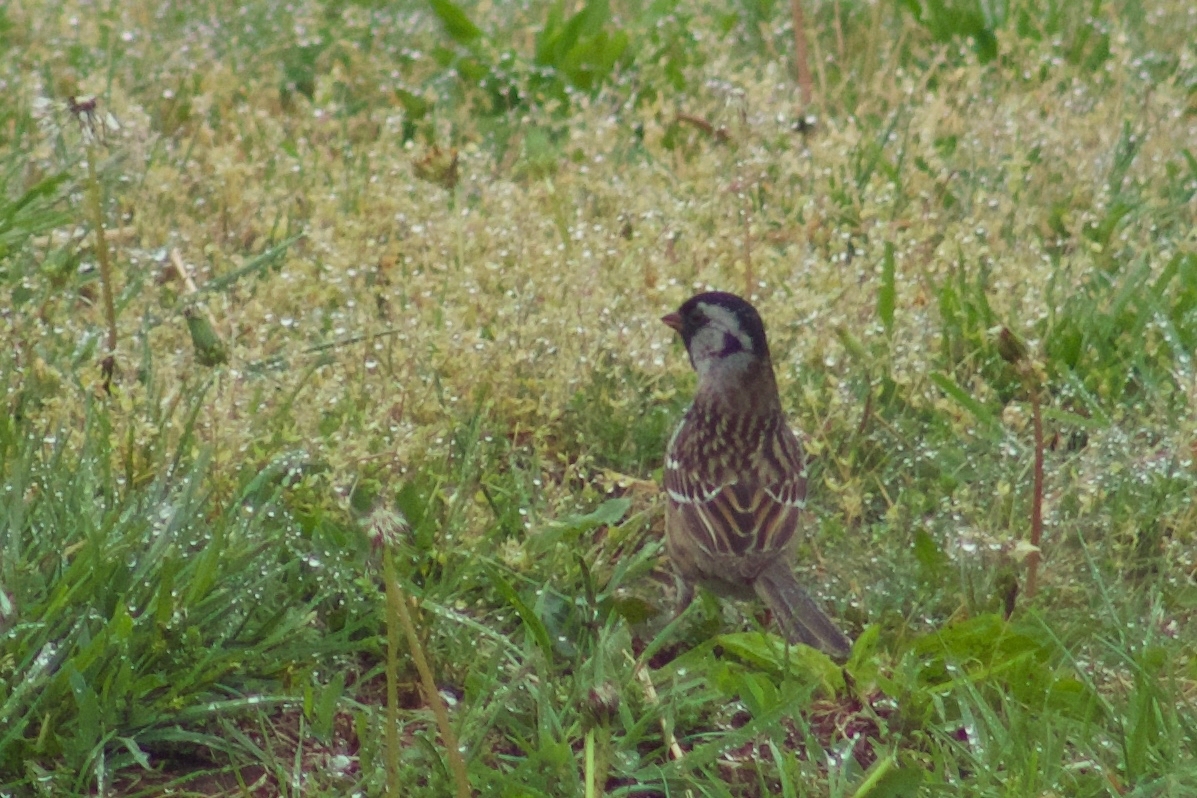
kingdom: Animalia
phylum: Chordata
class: Aves
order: Passeriformes
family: Passerellidae
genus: Zonotrichia
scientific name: Zonotrichia querula
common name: Harris's sparrow
